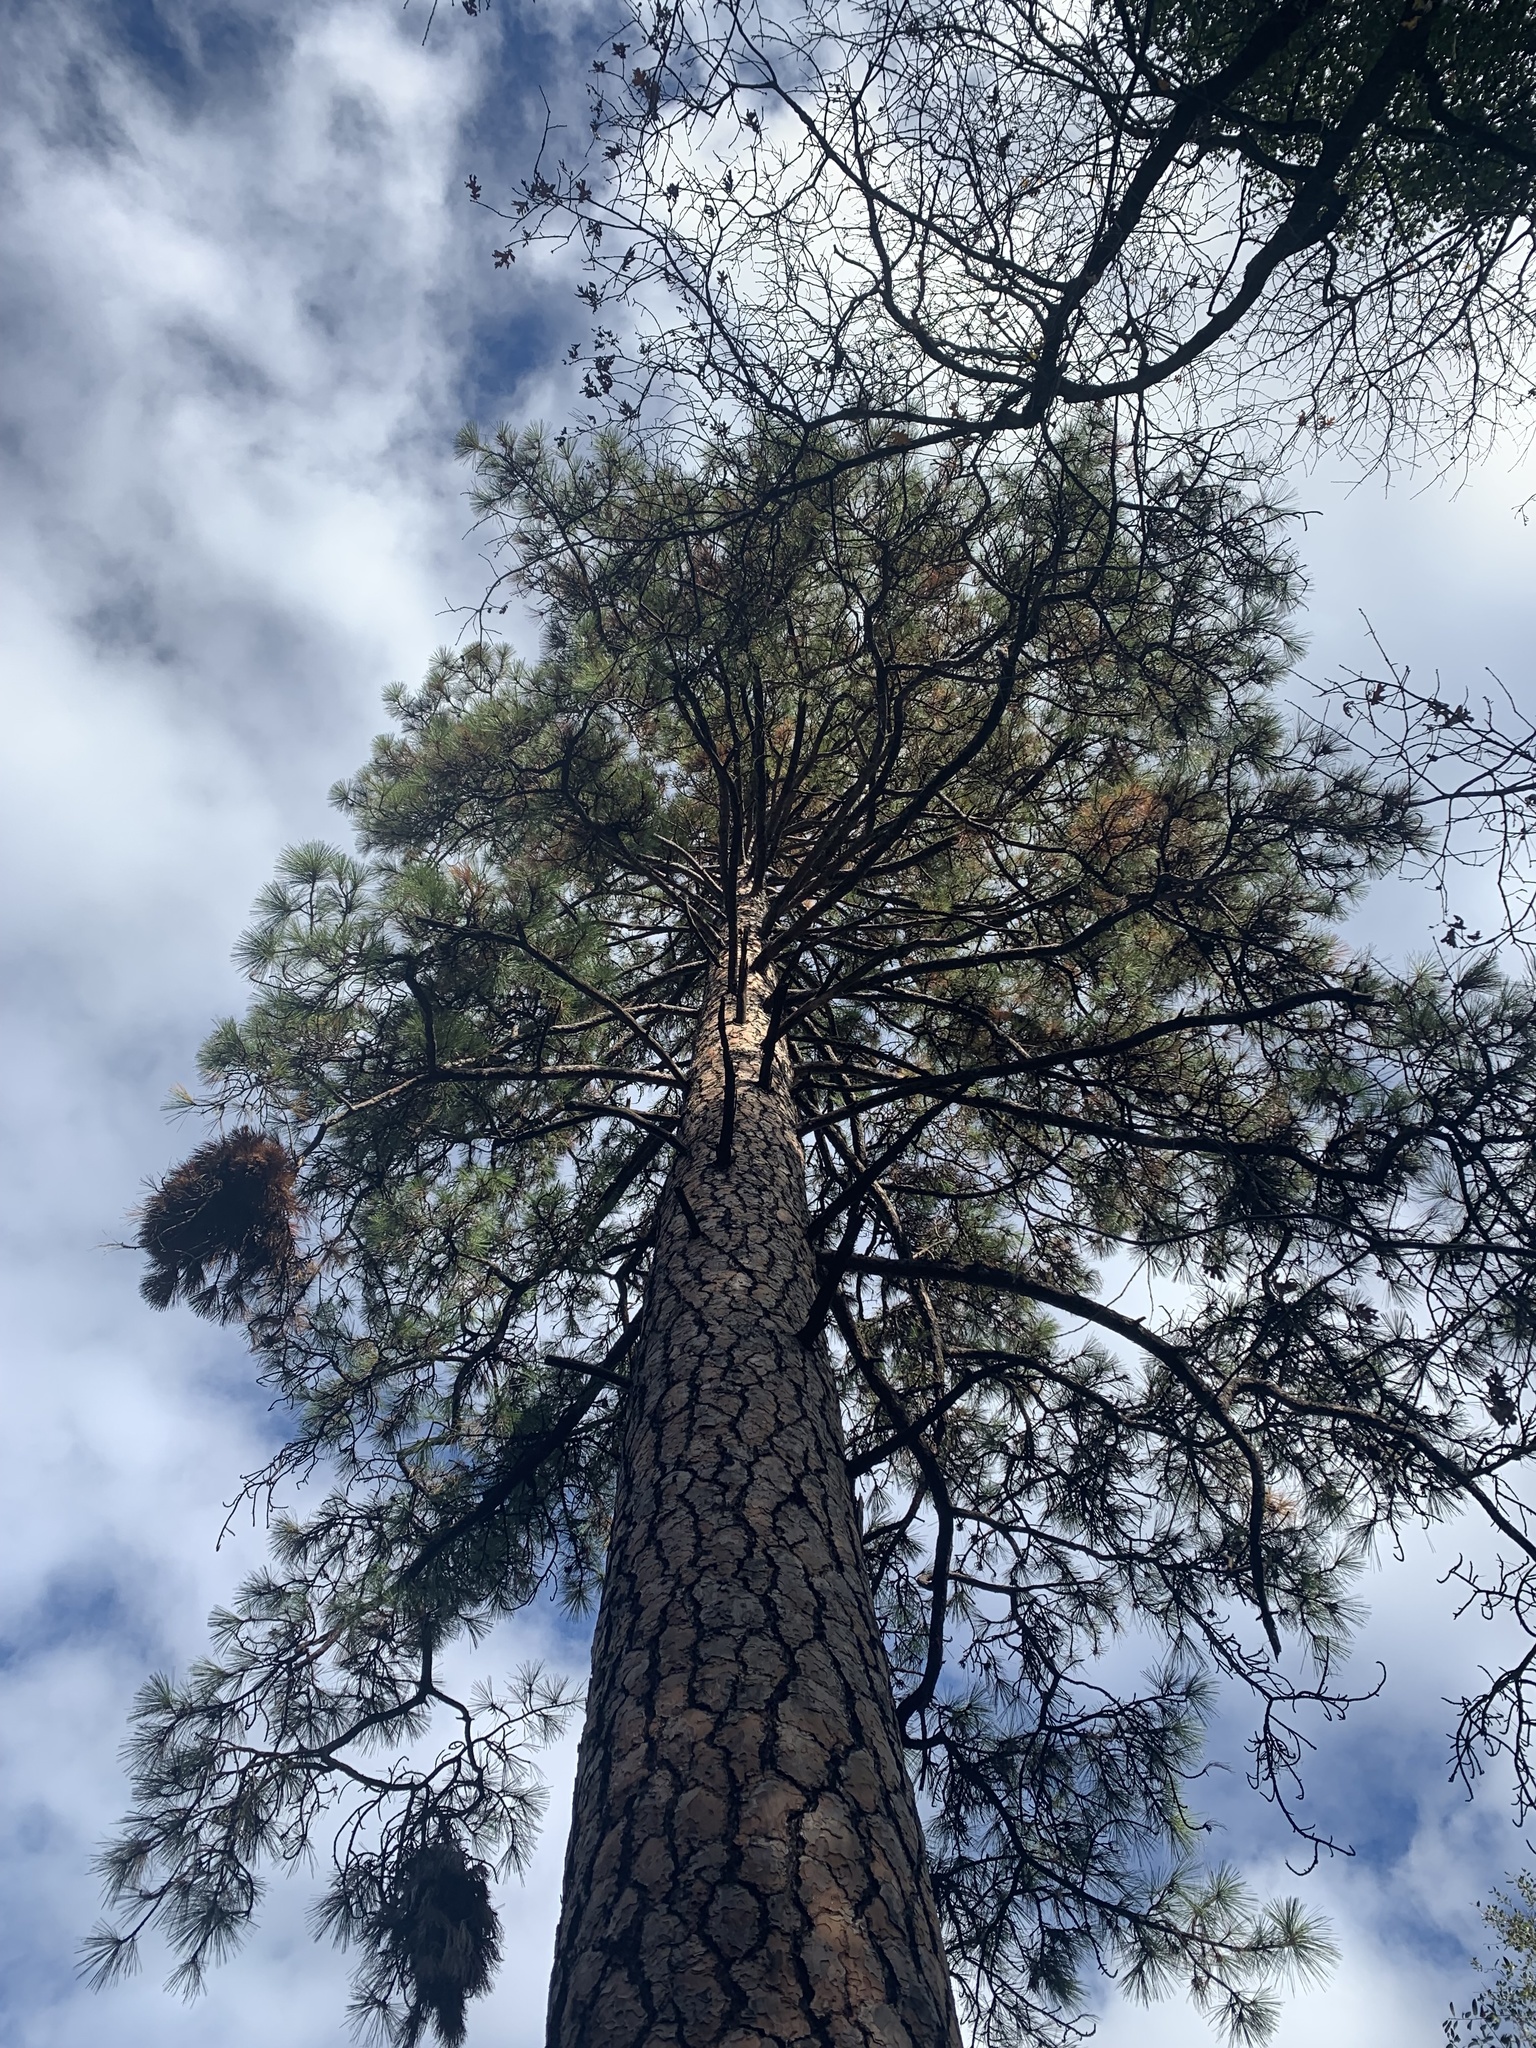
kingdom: Plantae
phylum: Tracheophyta
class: Pinopsida
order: Pinales
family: Pinaceae
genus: Pinus
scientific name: Pinus ponderosa
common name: Western yellow-pine
